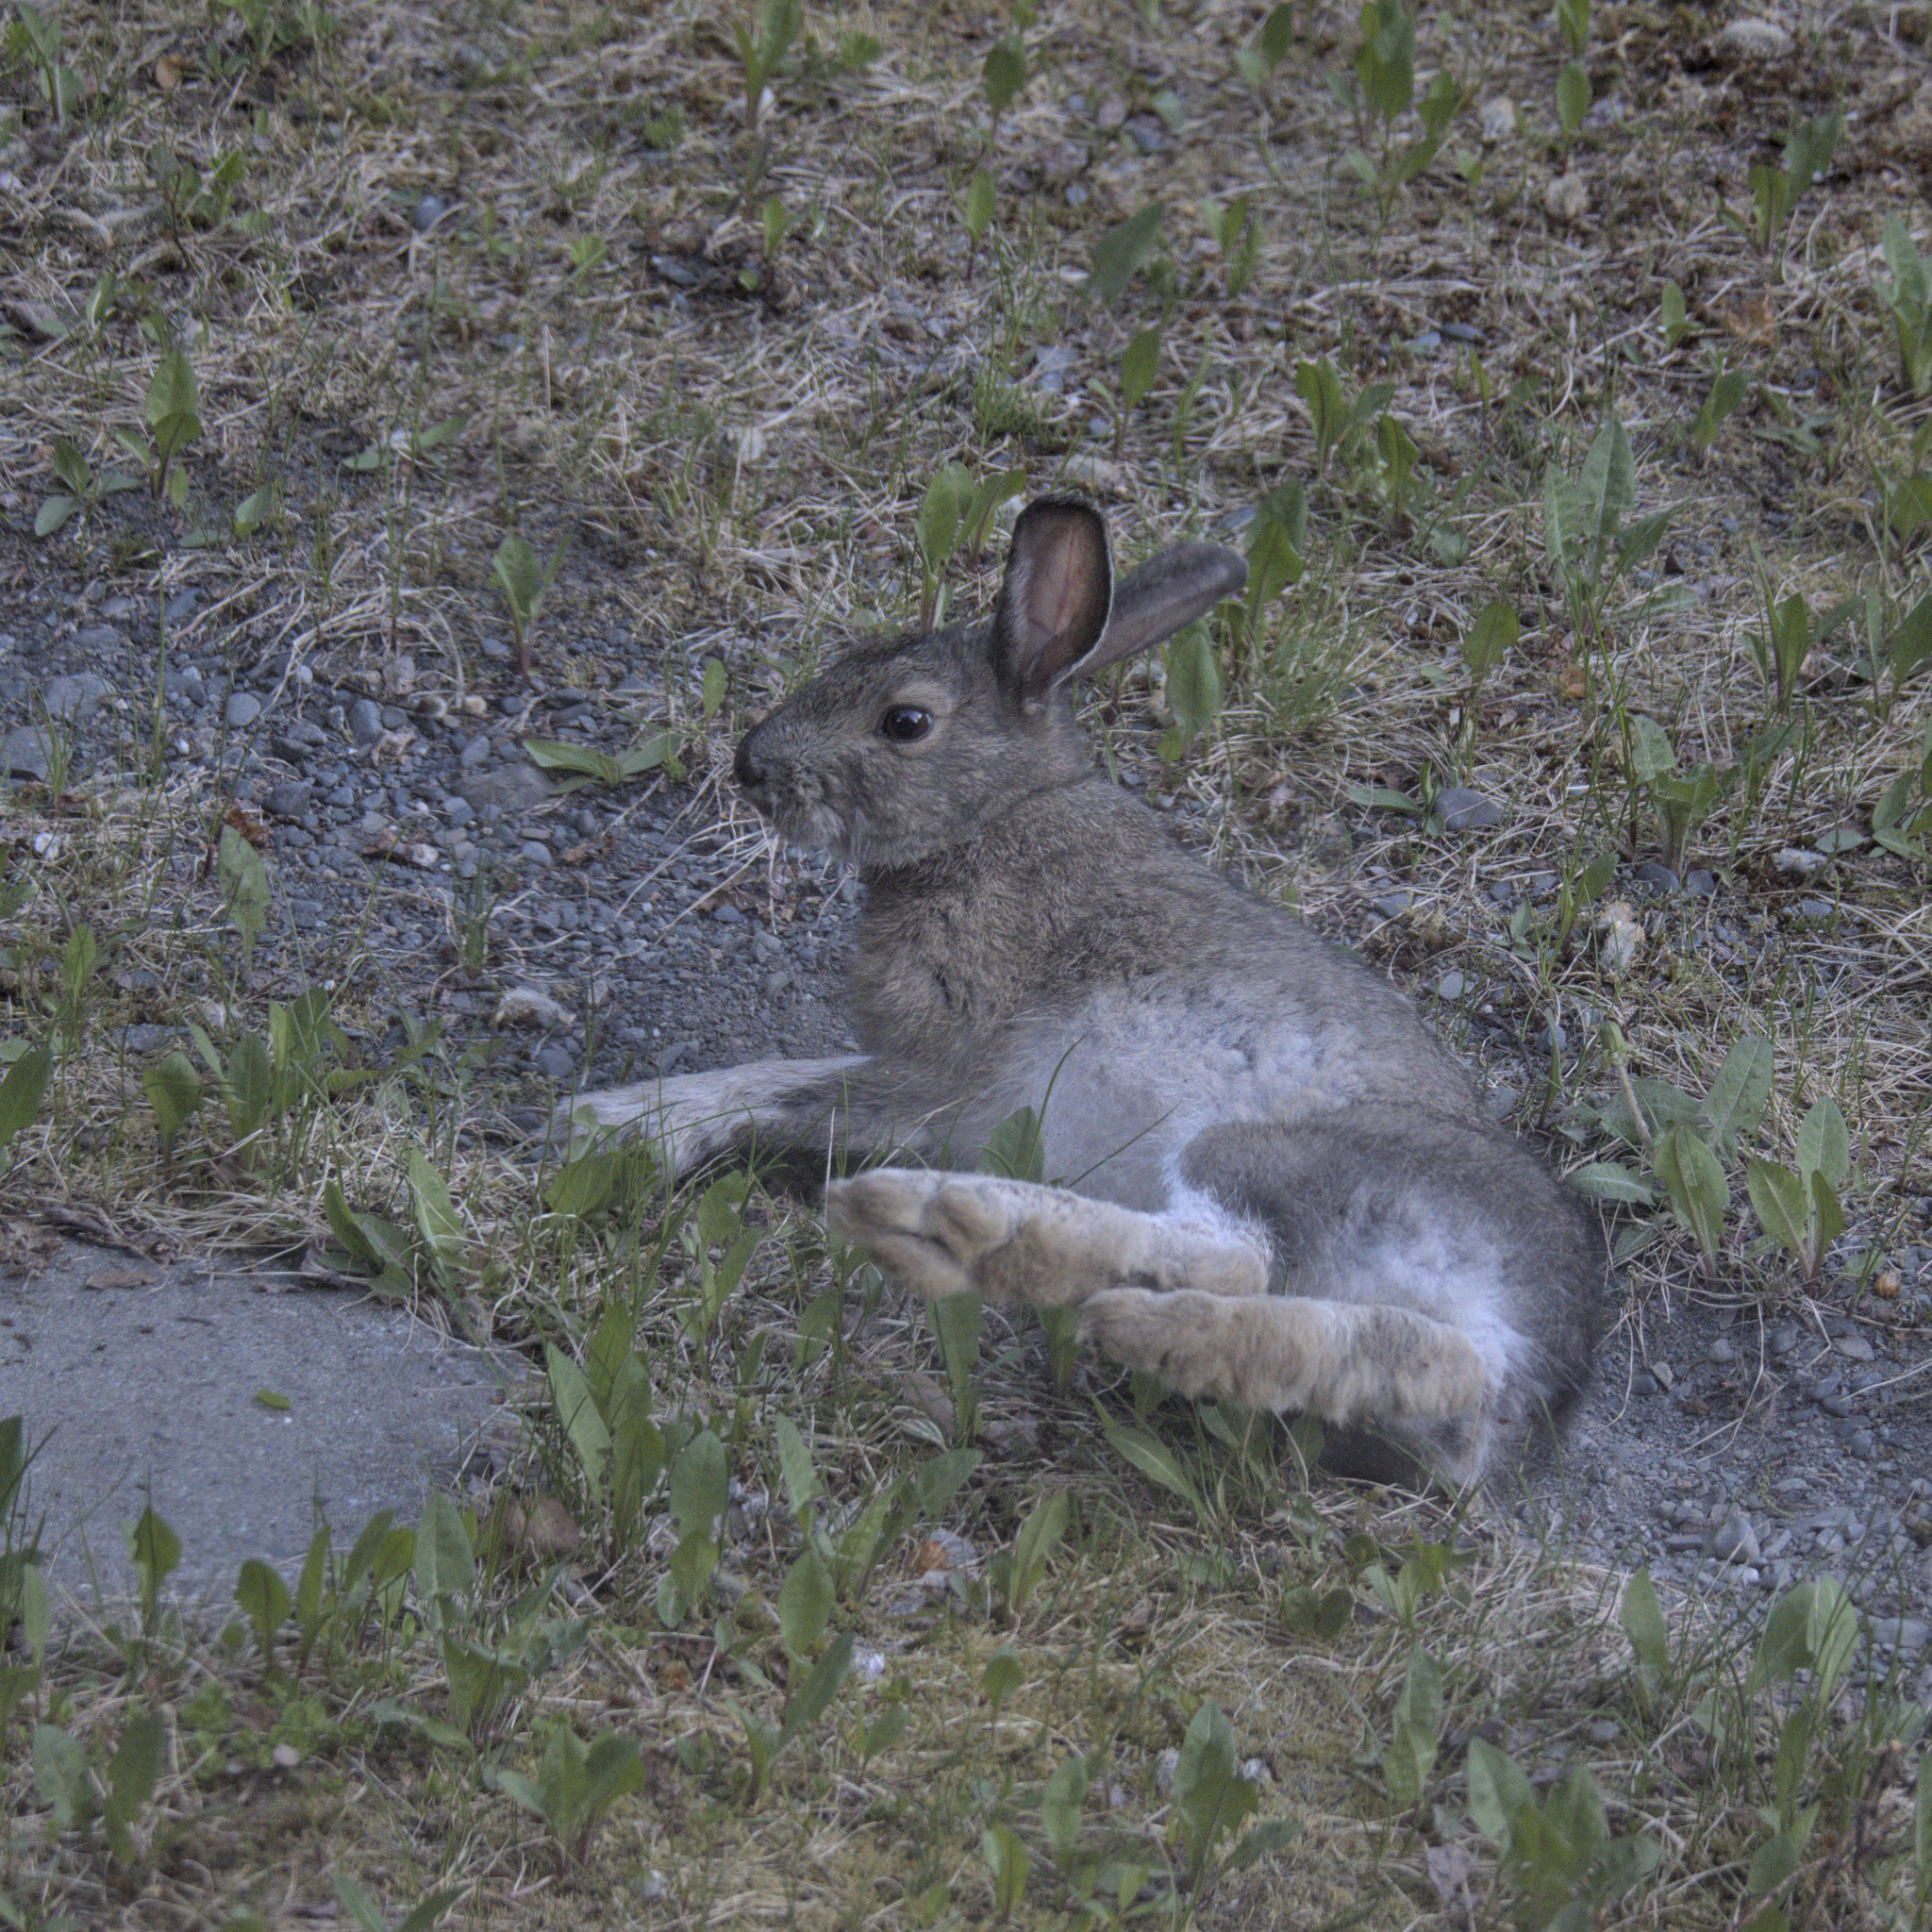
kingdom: Animalia
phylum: Chordata
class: Mammalia
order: Lagomorpha
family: Leporidae
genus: Lepus
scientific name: Lepus americanus
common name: Snowshoe hare
